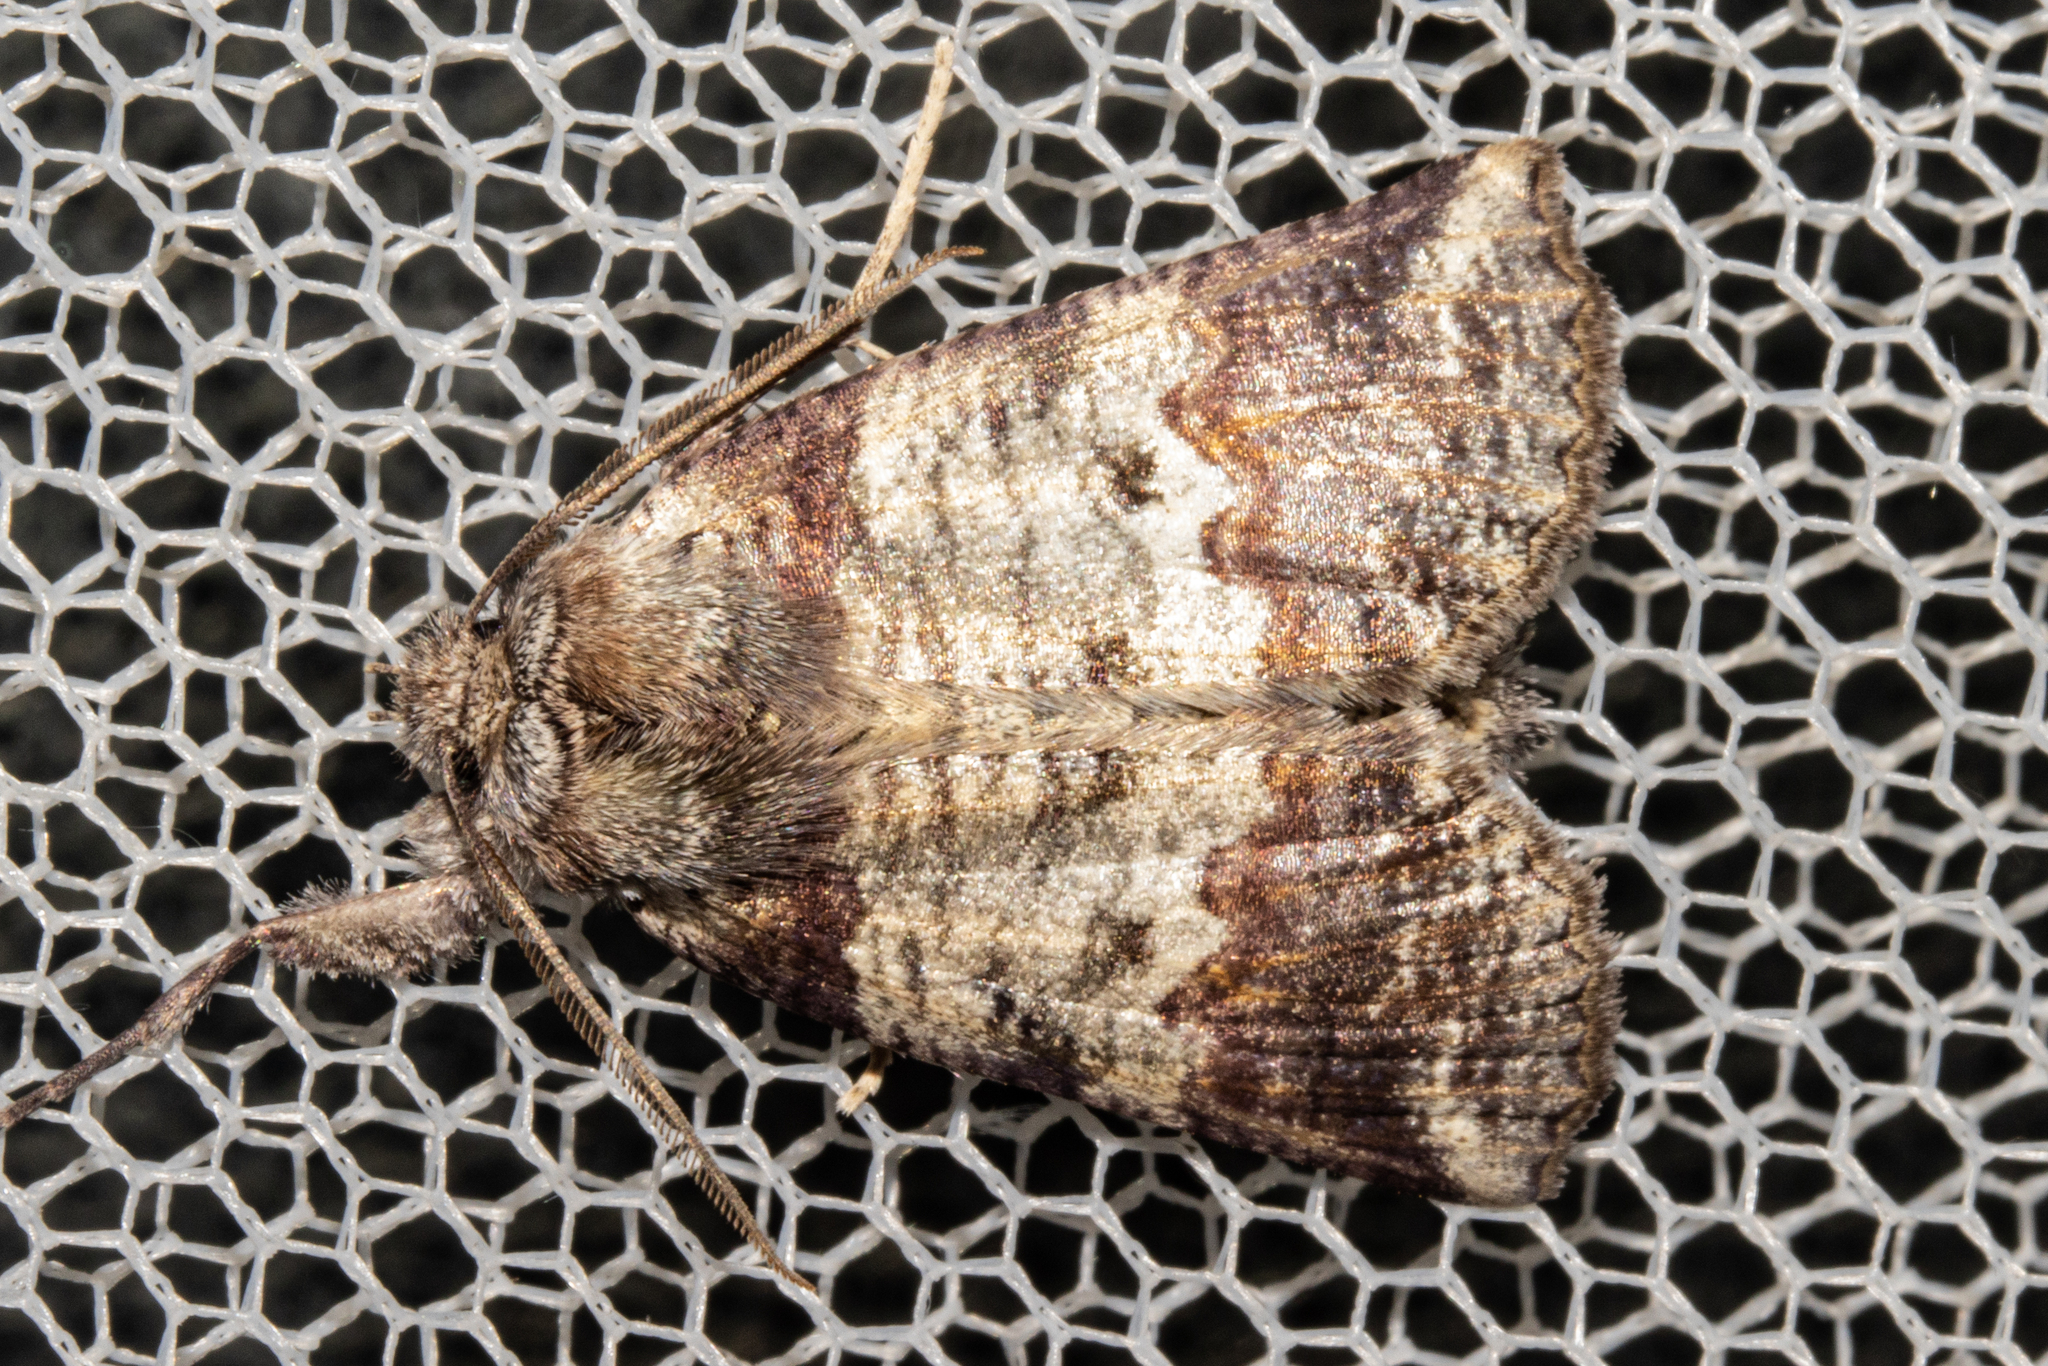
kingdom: Animalia
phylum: Arthropoda
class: Insecta
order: Lepidoptera
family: Geometridae
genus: Declana
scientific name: Declana
